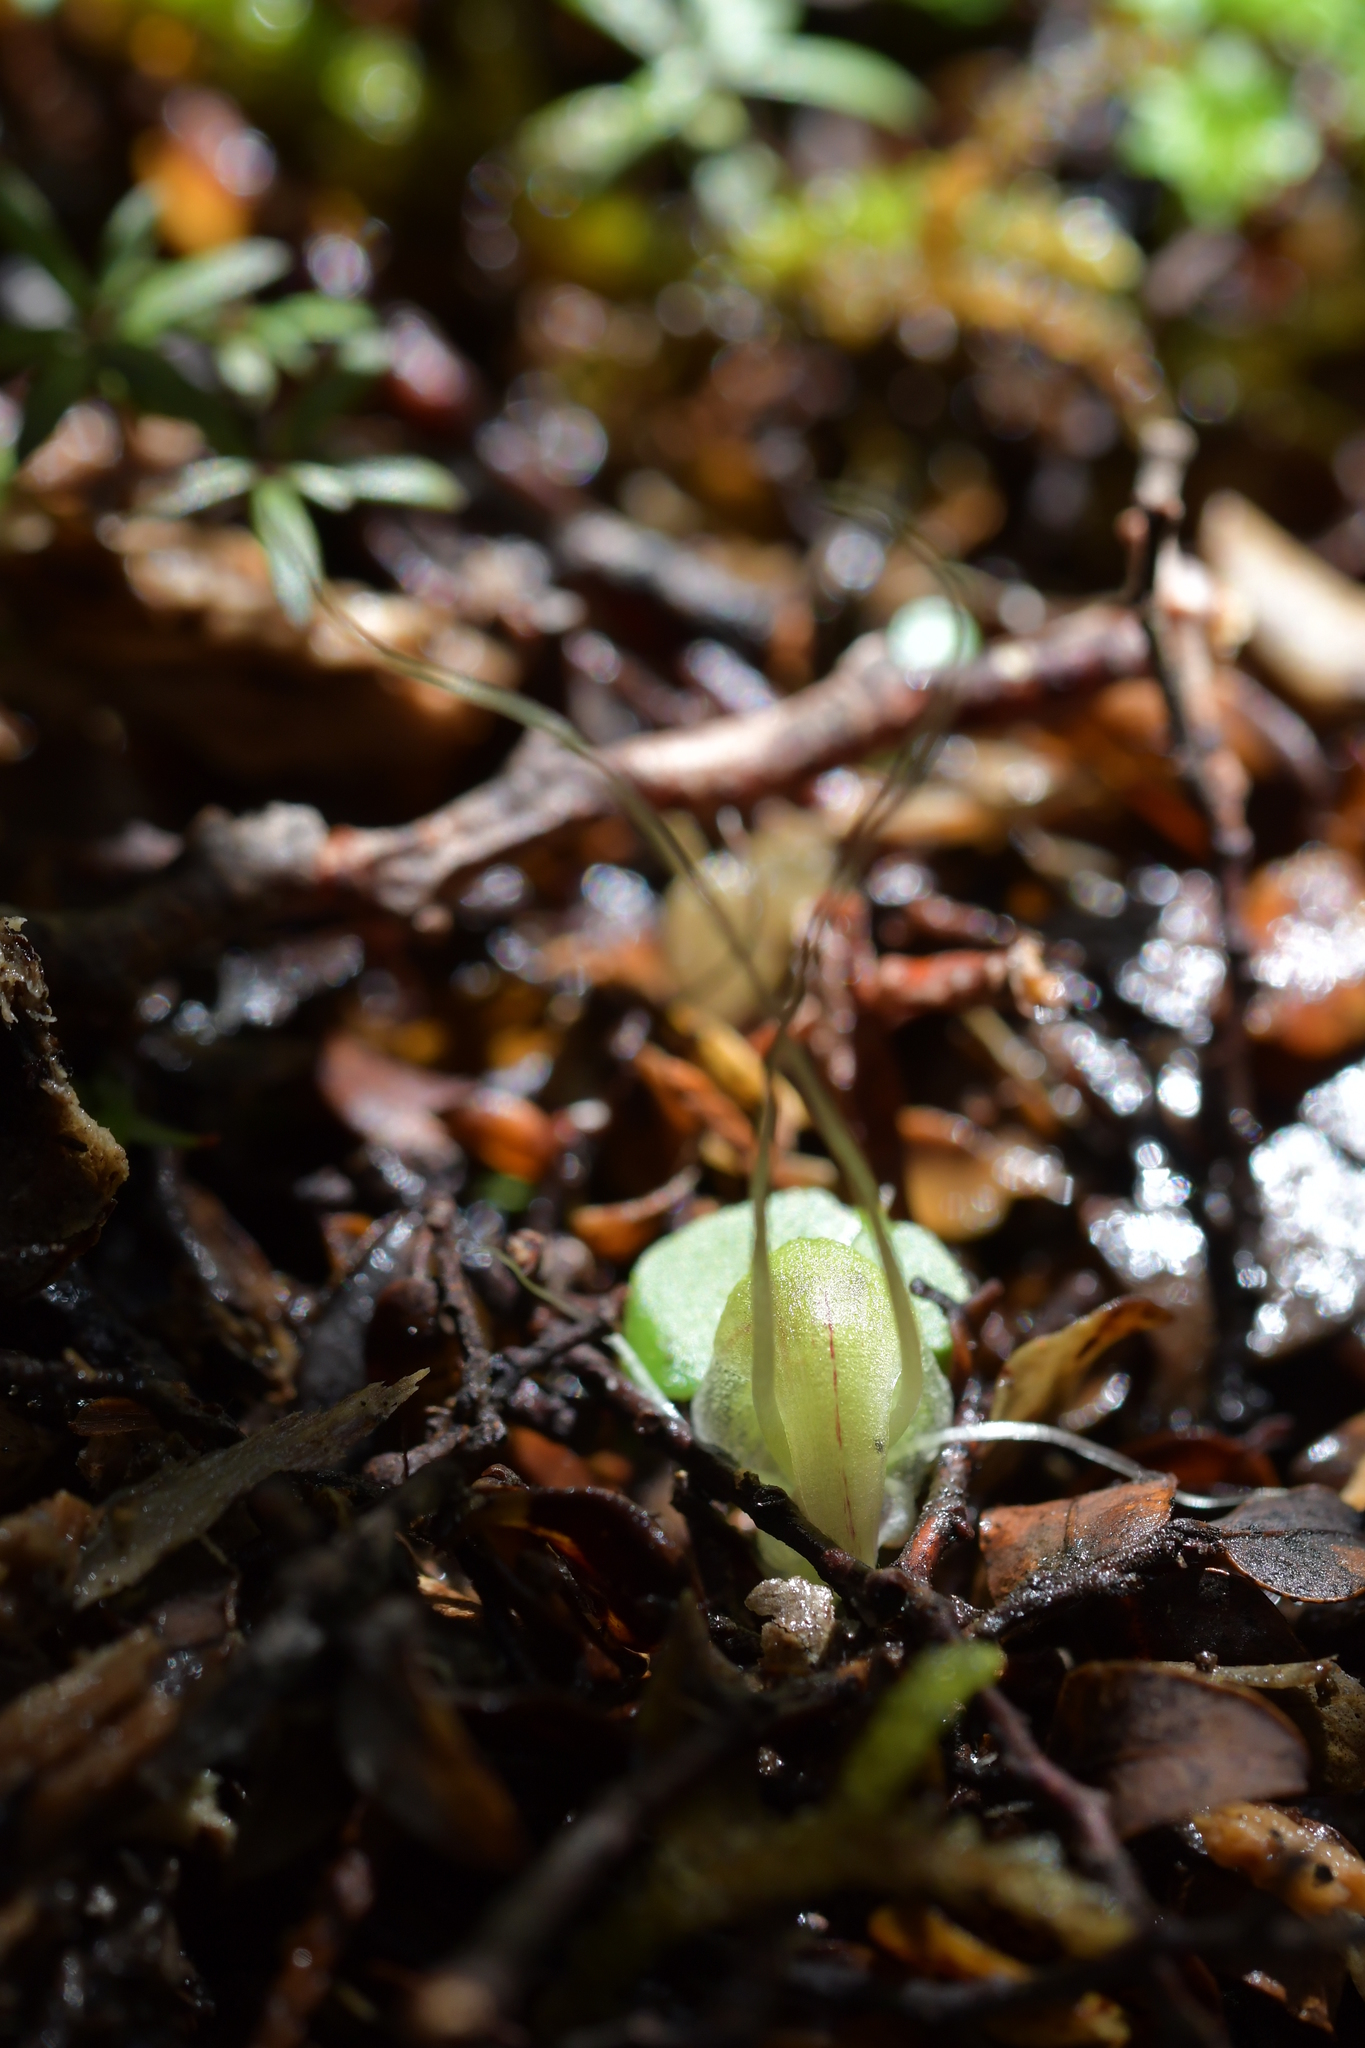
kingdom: Plantae
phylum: Tracheophyta
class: Liliopsida
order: Asparagales
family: Orchidaceae
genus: Corybas
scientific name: Corybas walliae
